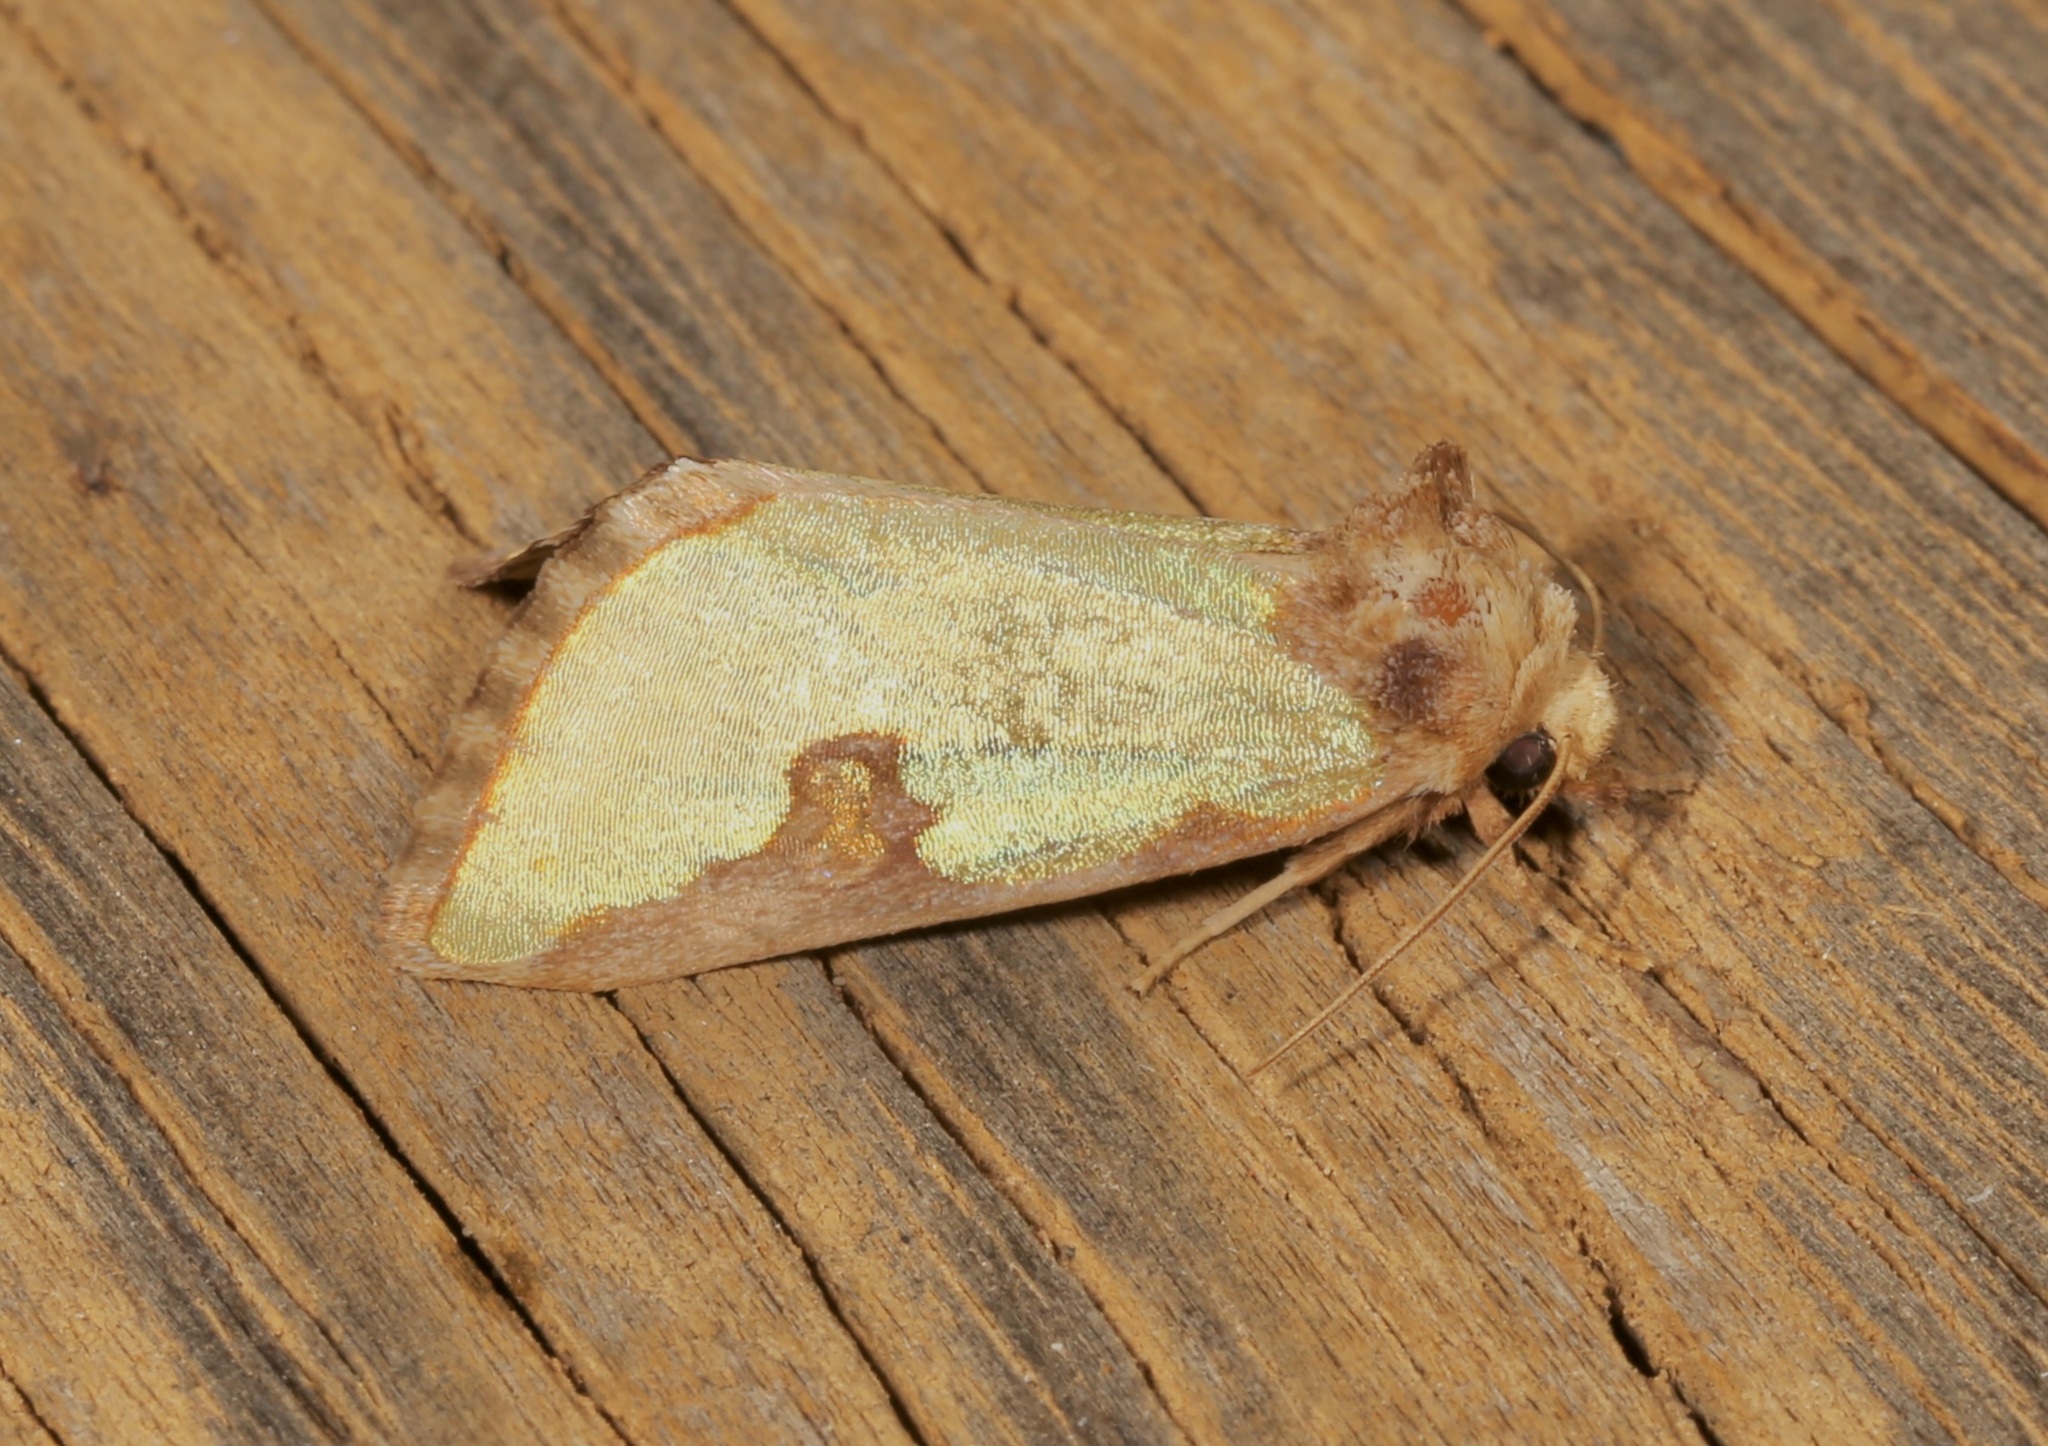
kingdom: Animalia
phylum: Arthropoda
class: Insecta
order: Lepidoptera
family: Noctuidae
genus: Chalcopasta
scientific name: Chalcopasta territans
